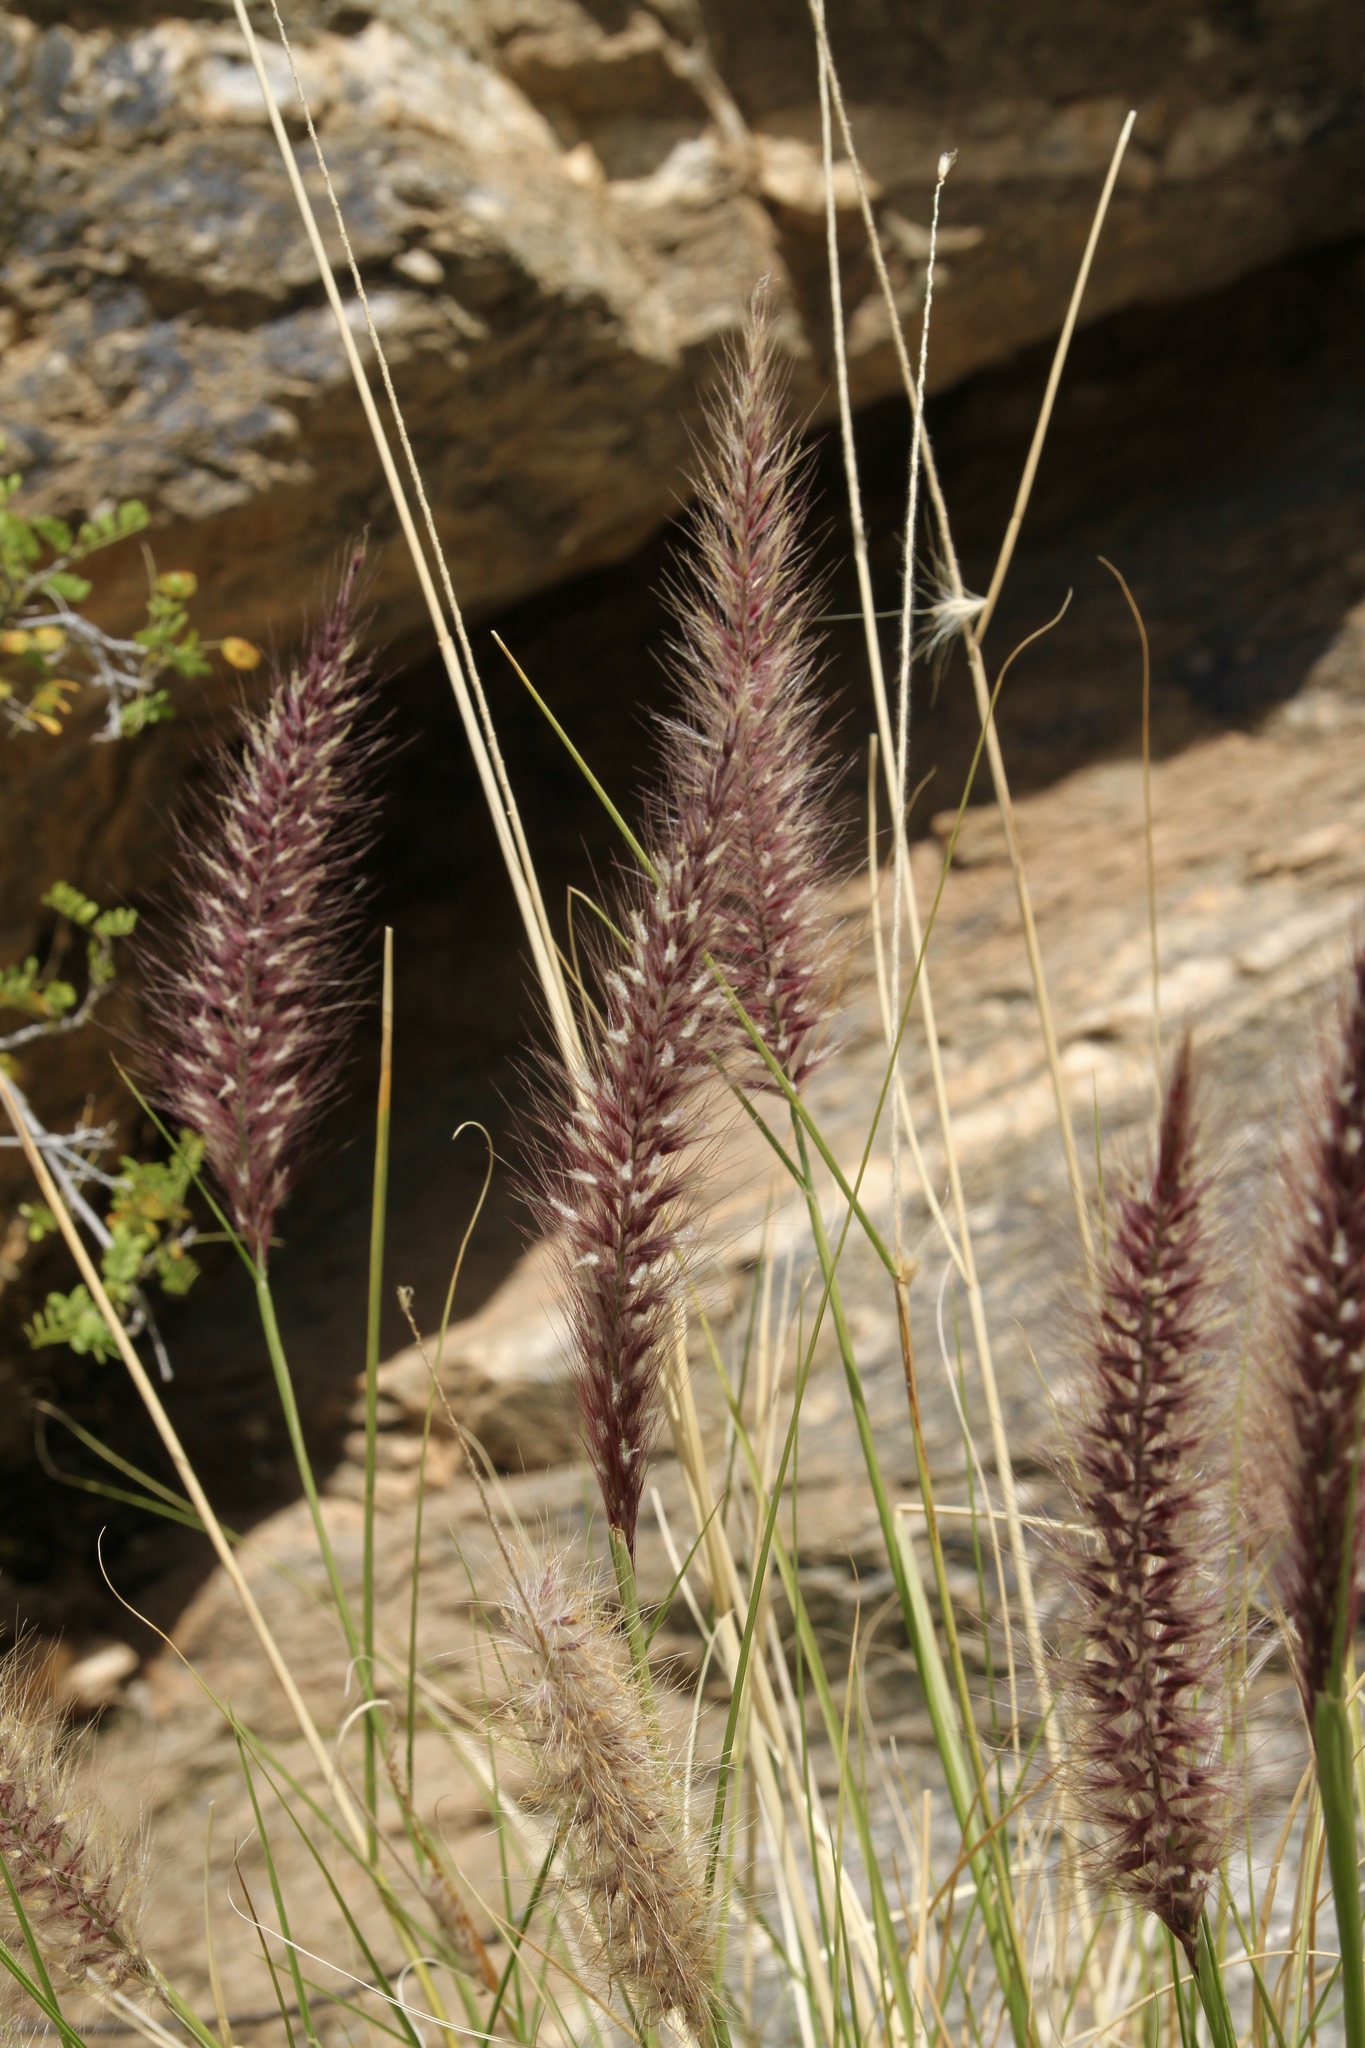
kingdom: Plantae
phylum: Tracheophyta
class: Liliopsida
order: Poales
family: Poaceae
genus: Cenchrus
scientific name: Cenchrus setaceus
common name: Crimson fountaingrass
